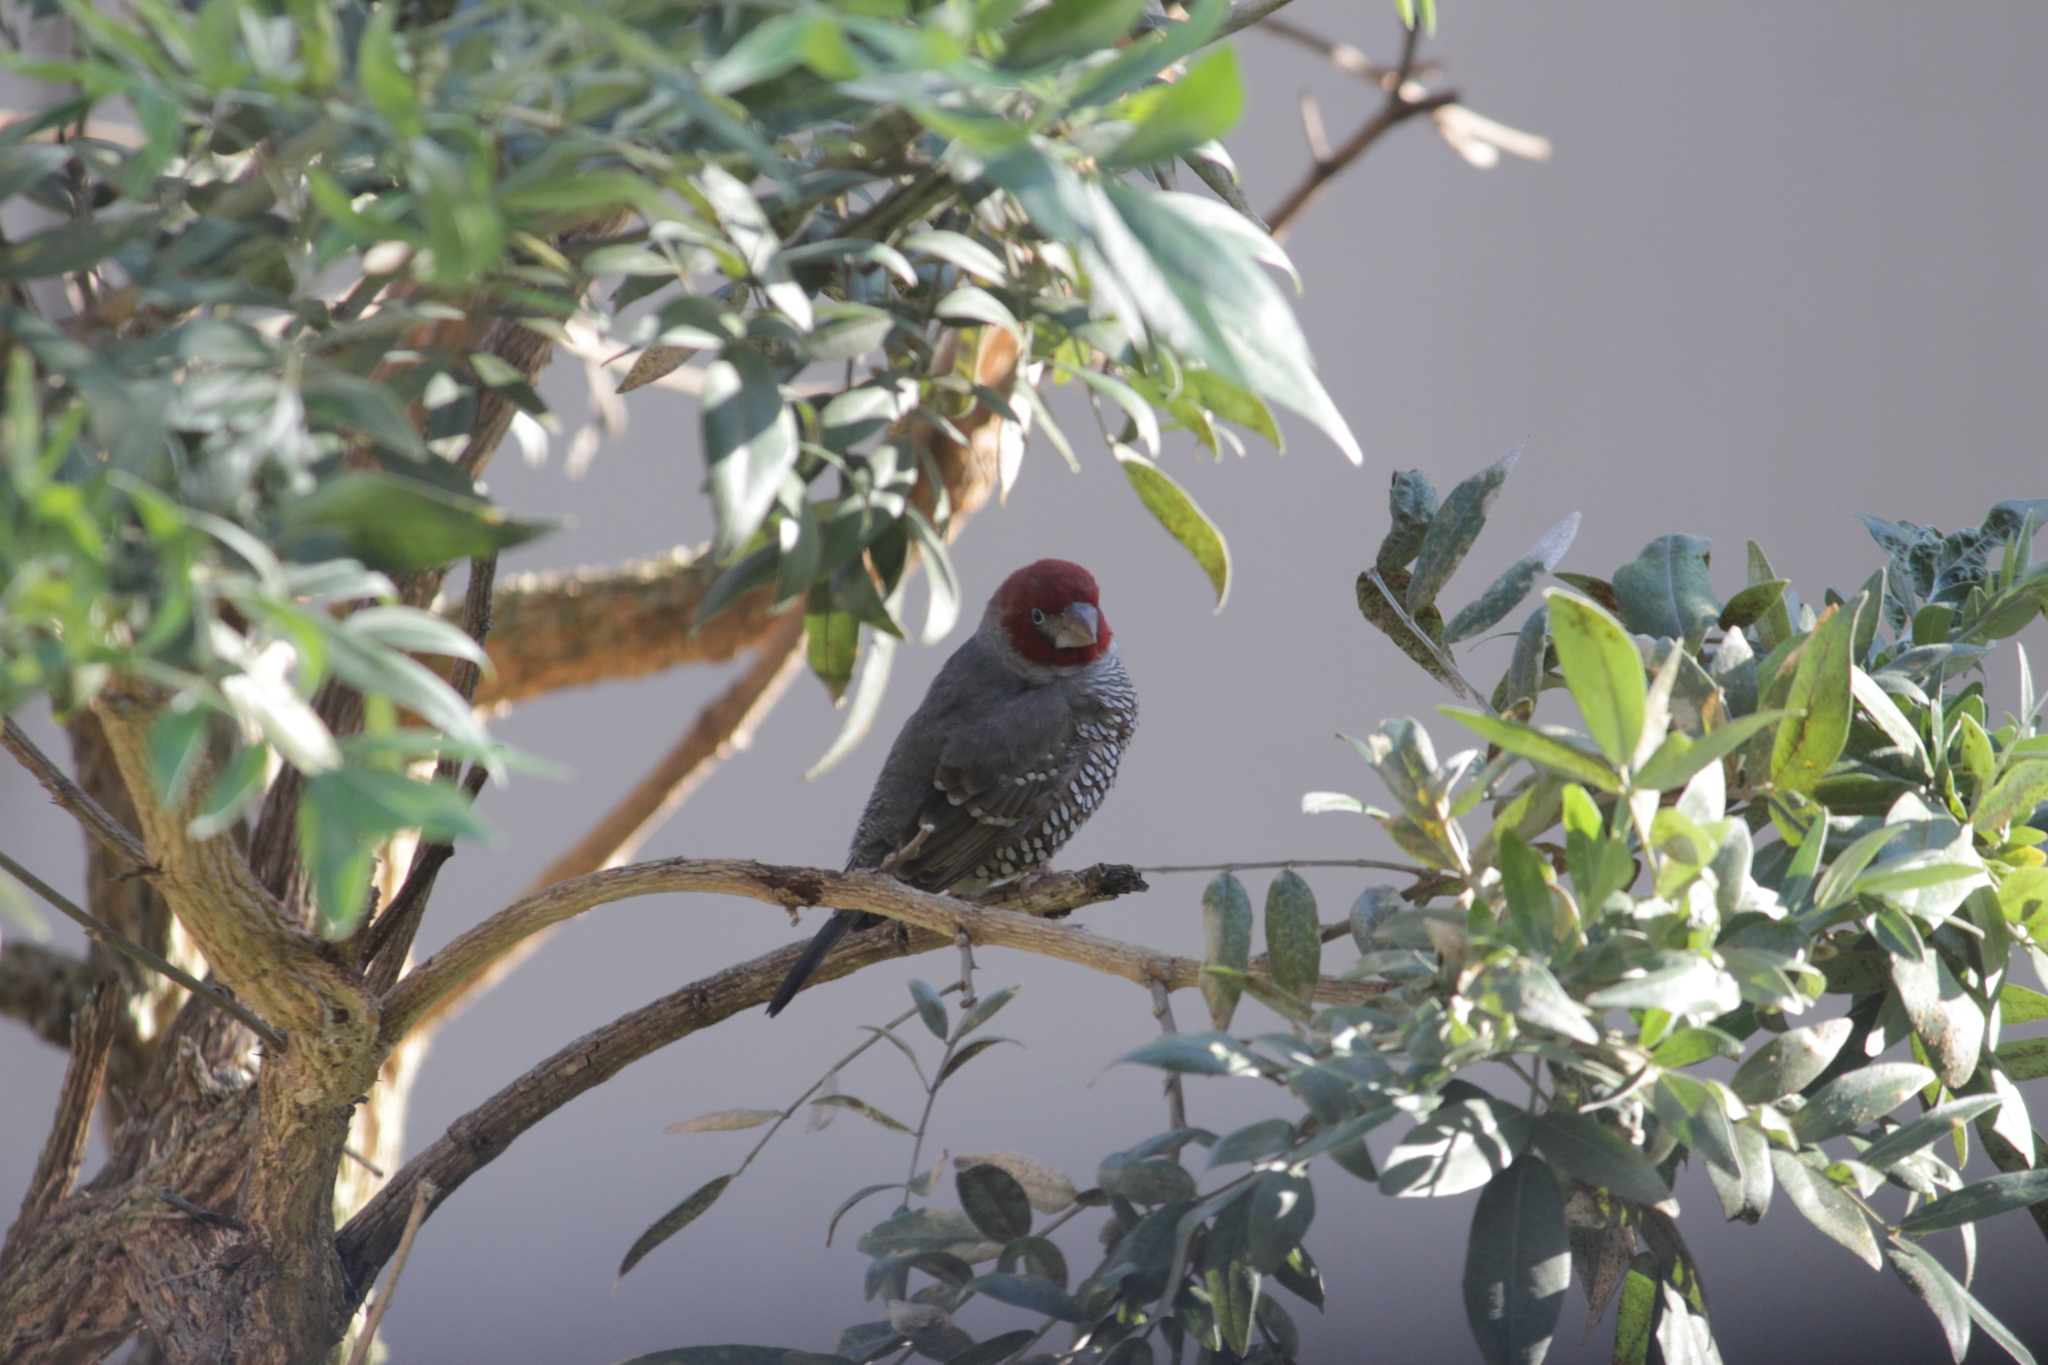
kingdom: Animalia
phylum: Chordata
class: Aves
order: Passeriformes
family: Estrildidae
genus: Amadina
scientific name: Amadina erythrocephala
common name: Red-headed finch
